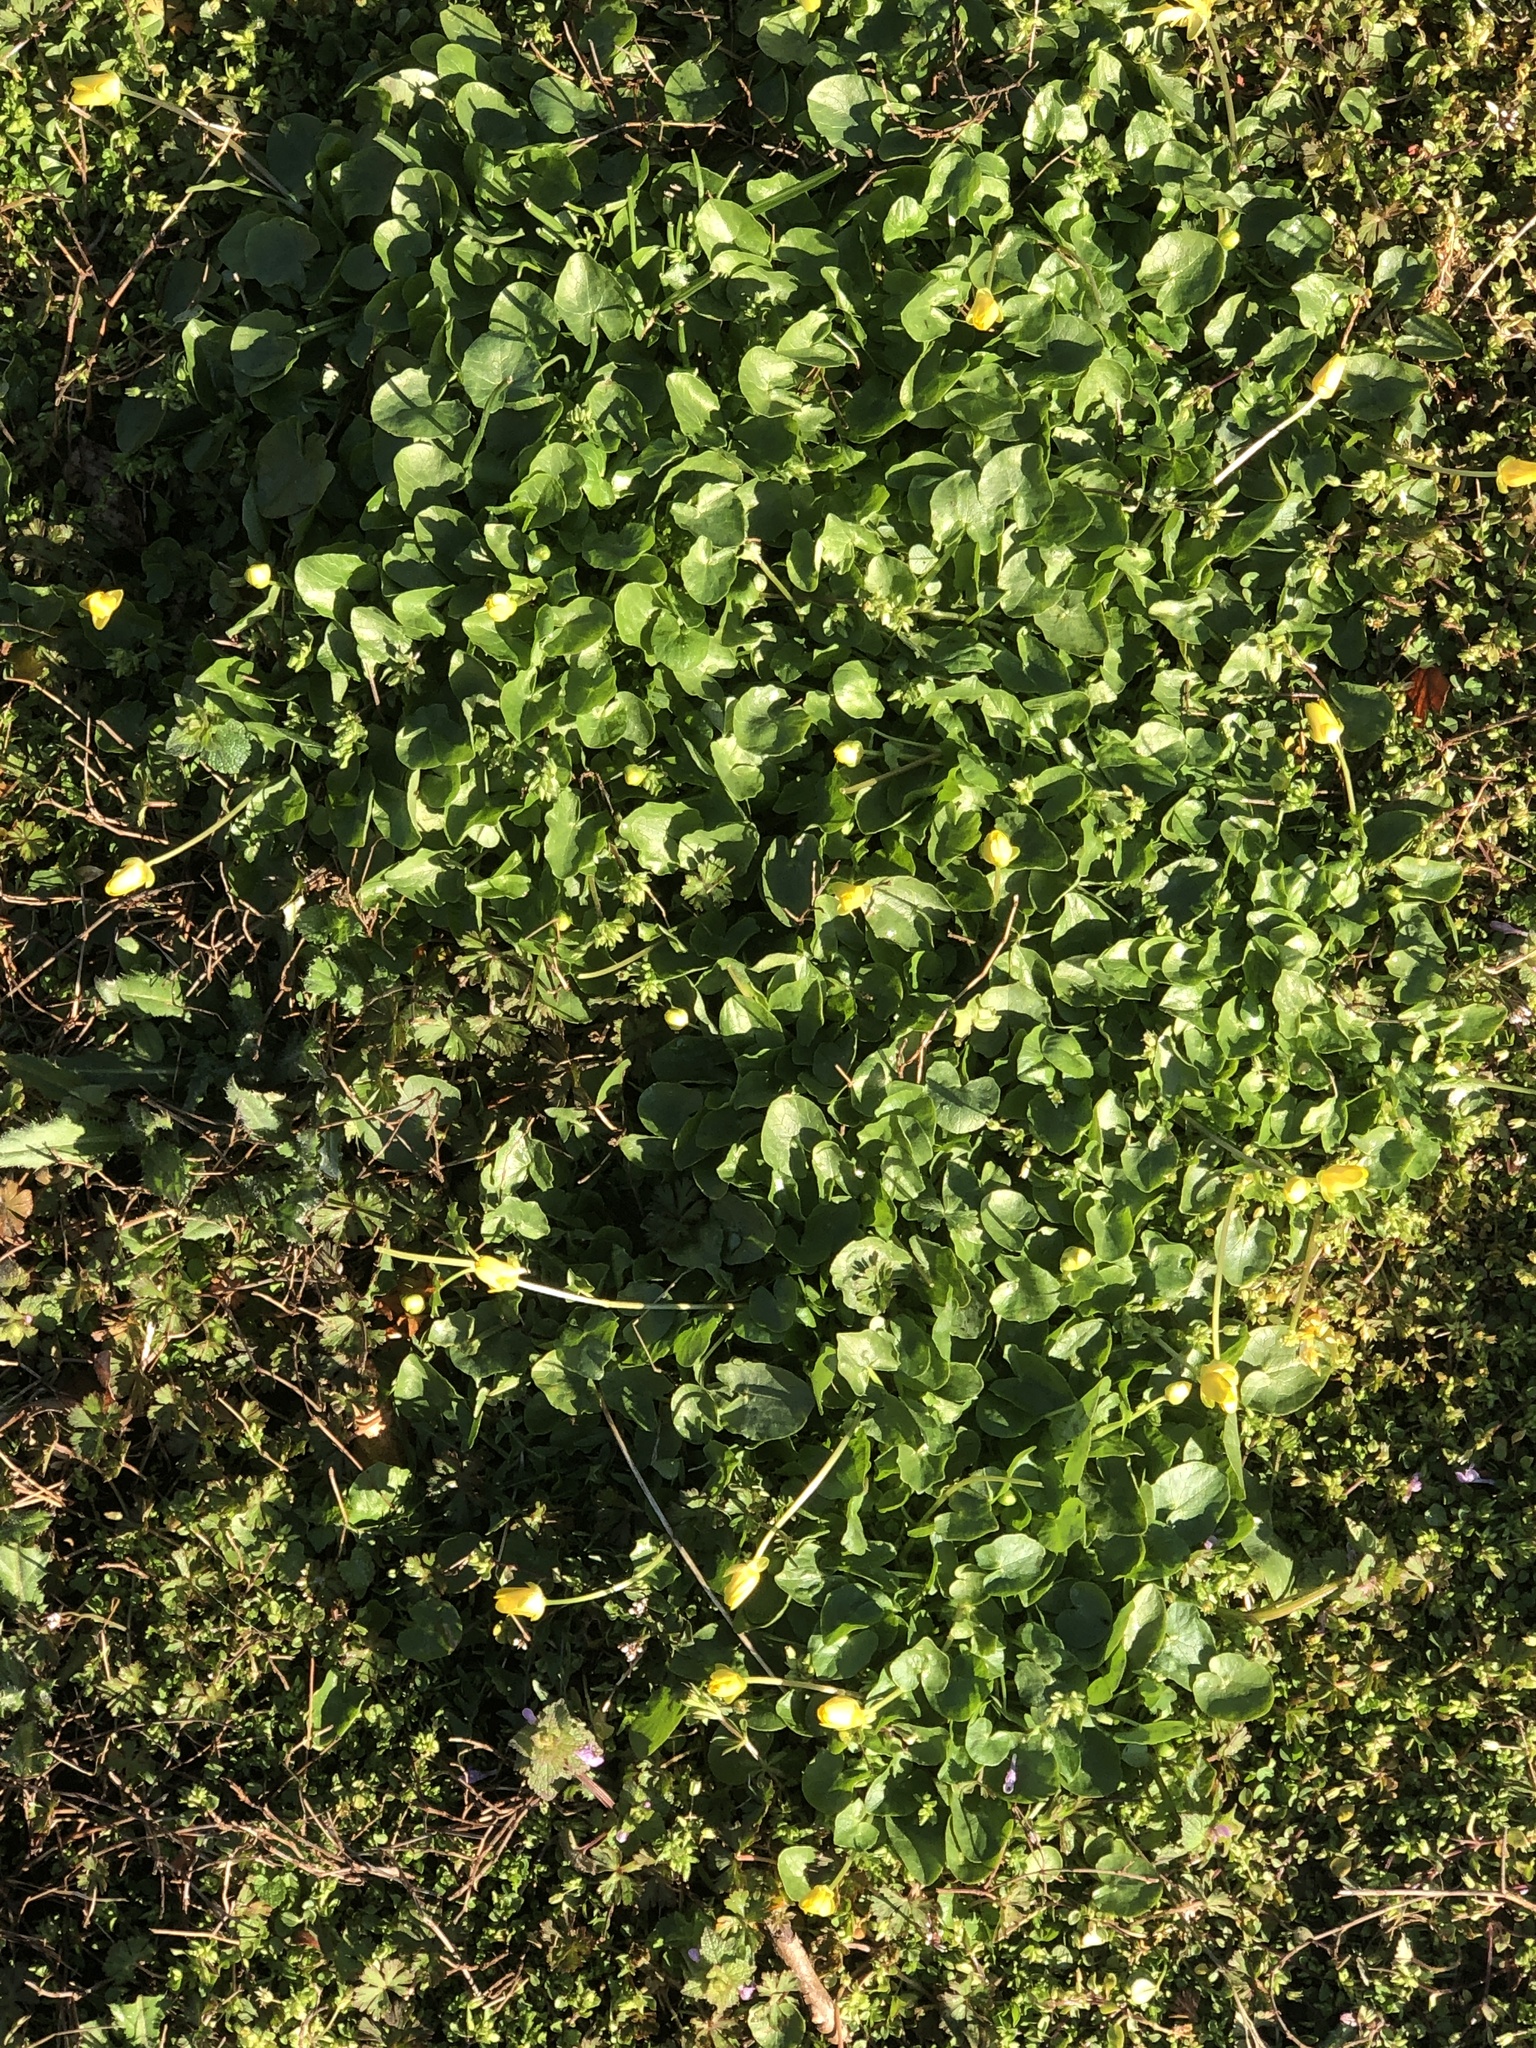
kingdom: Plantae
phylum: Tracheophyta
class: Magnoliopsida
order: Ranunculales
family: Ranunculaceae
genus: Ficaria
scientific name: Ficaria verna
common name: Lesser celandine
